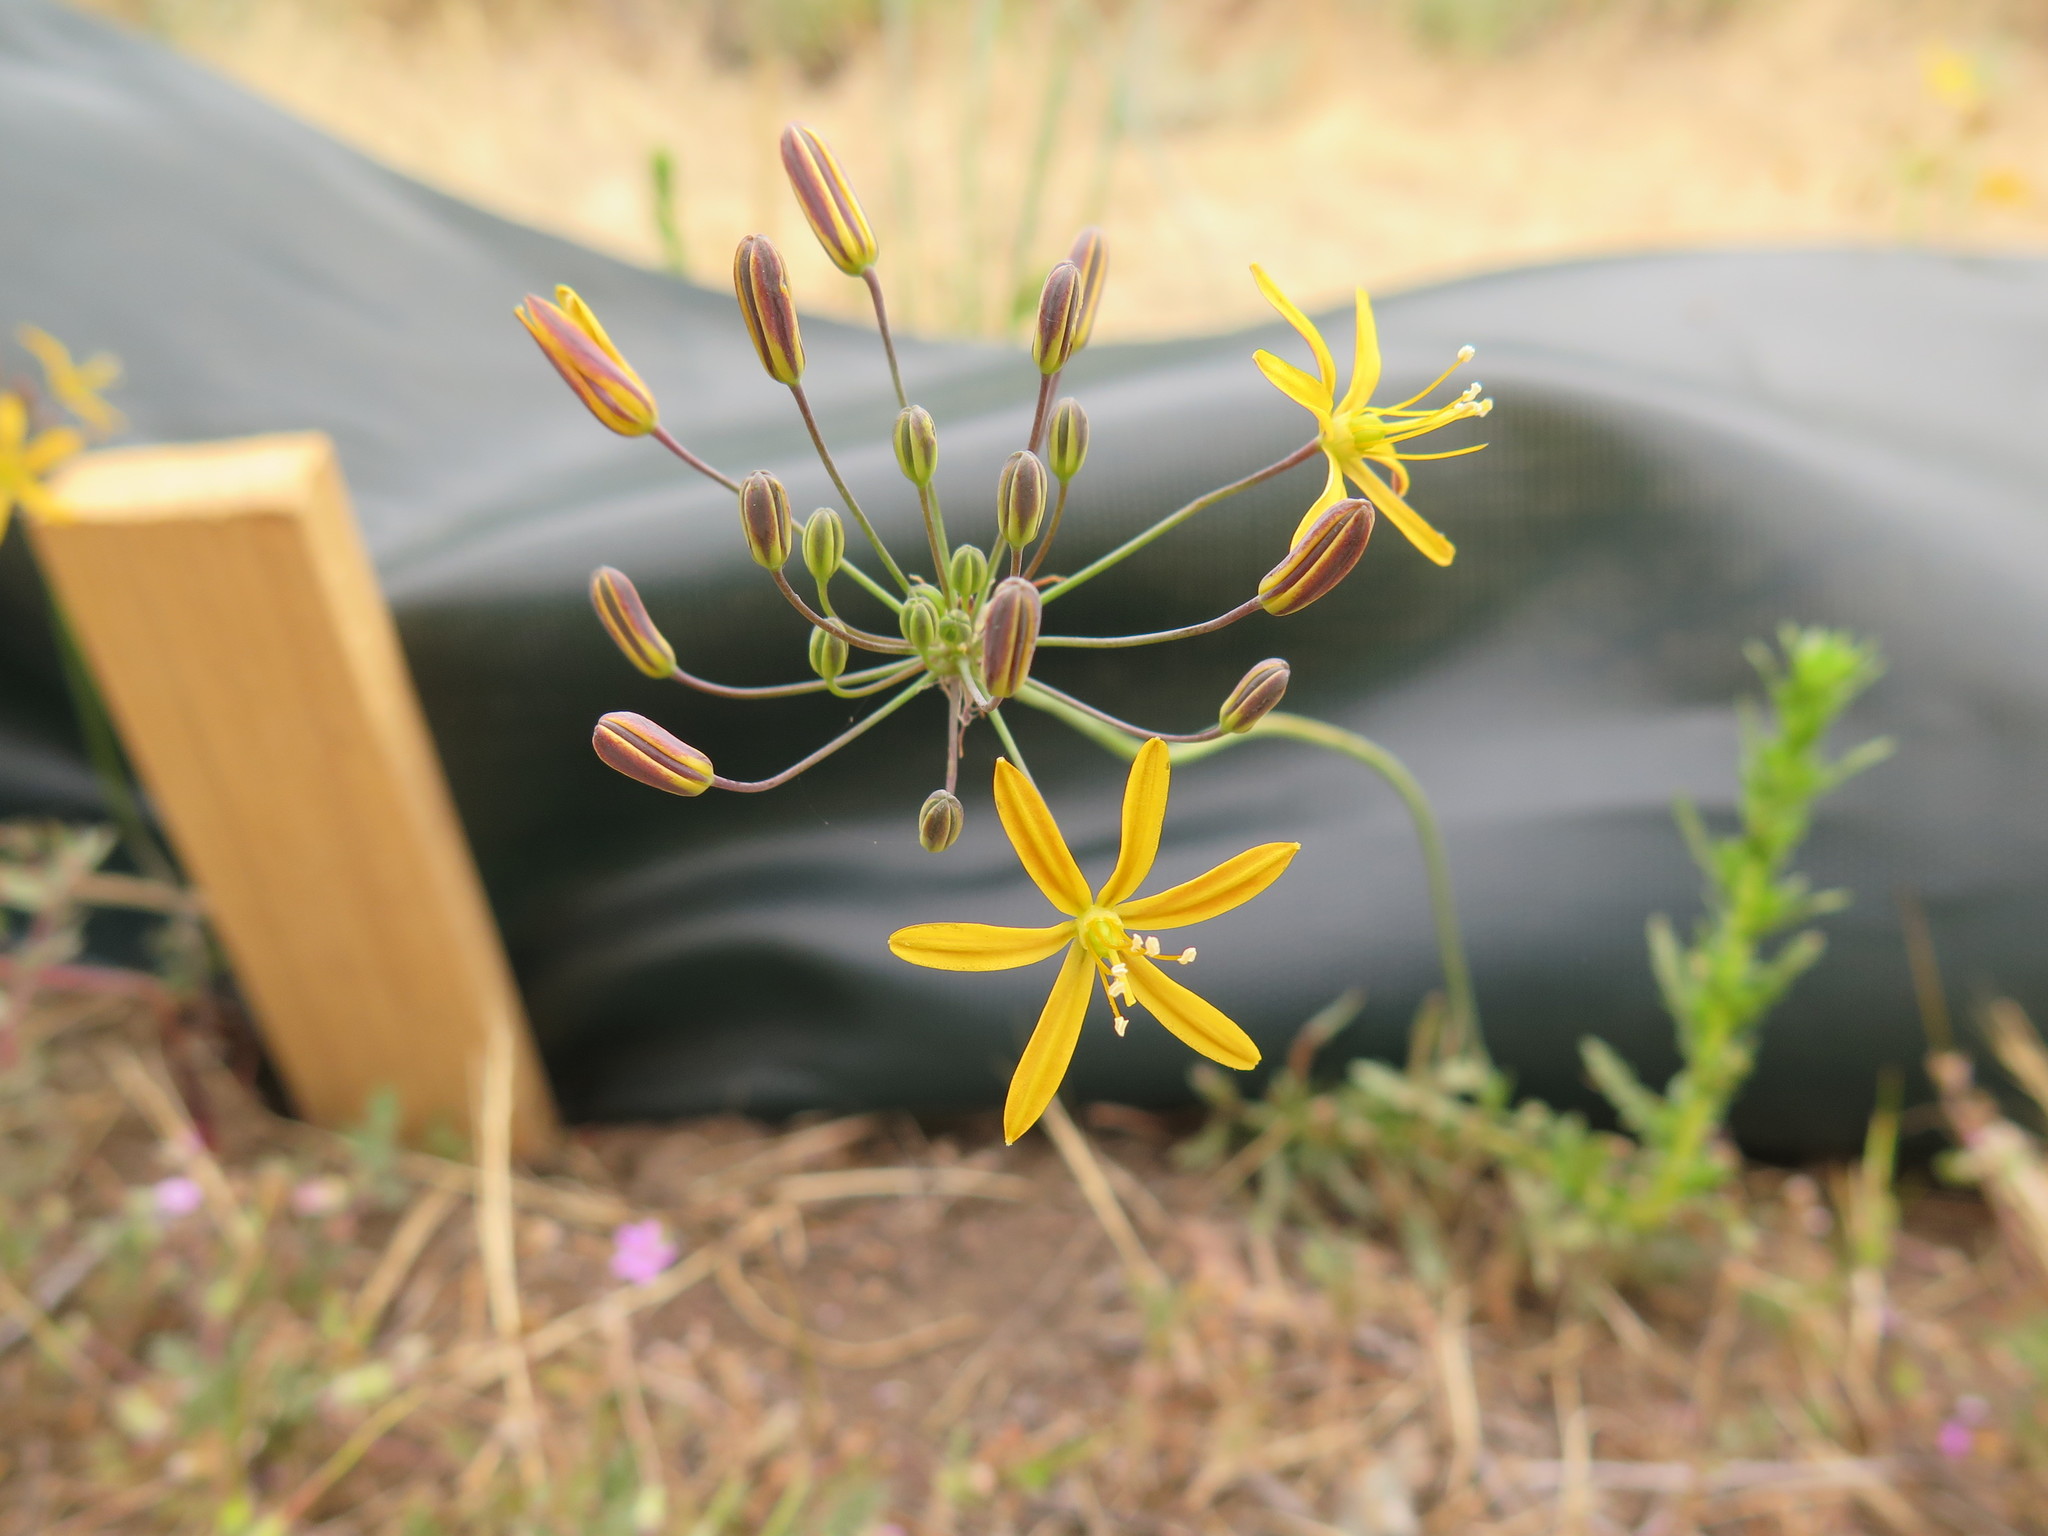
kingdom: Plantae
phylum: Tracheophyta
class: Liliopsida
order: Asparagales
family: Asparagaceae
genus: Bloomeria
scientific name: Bloomeria crocea
